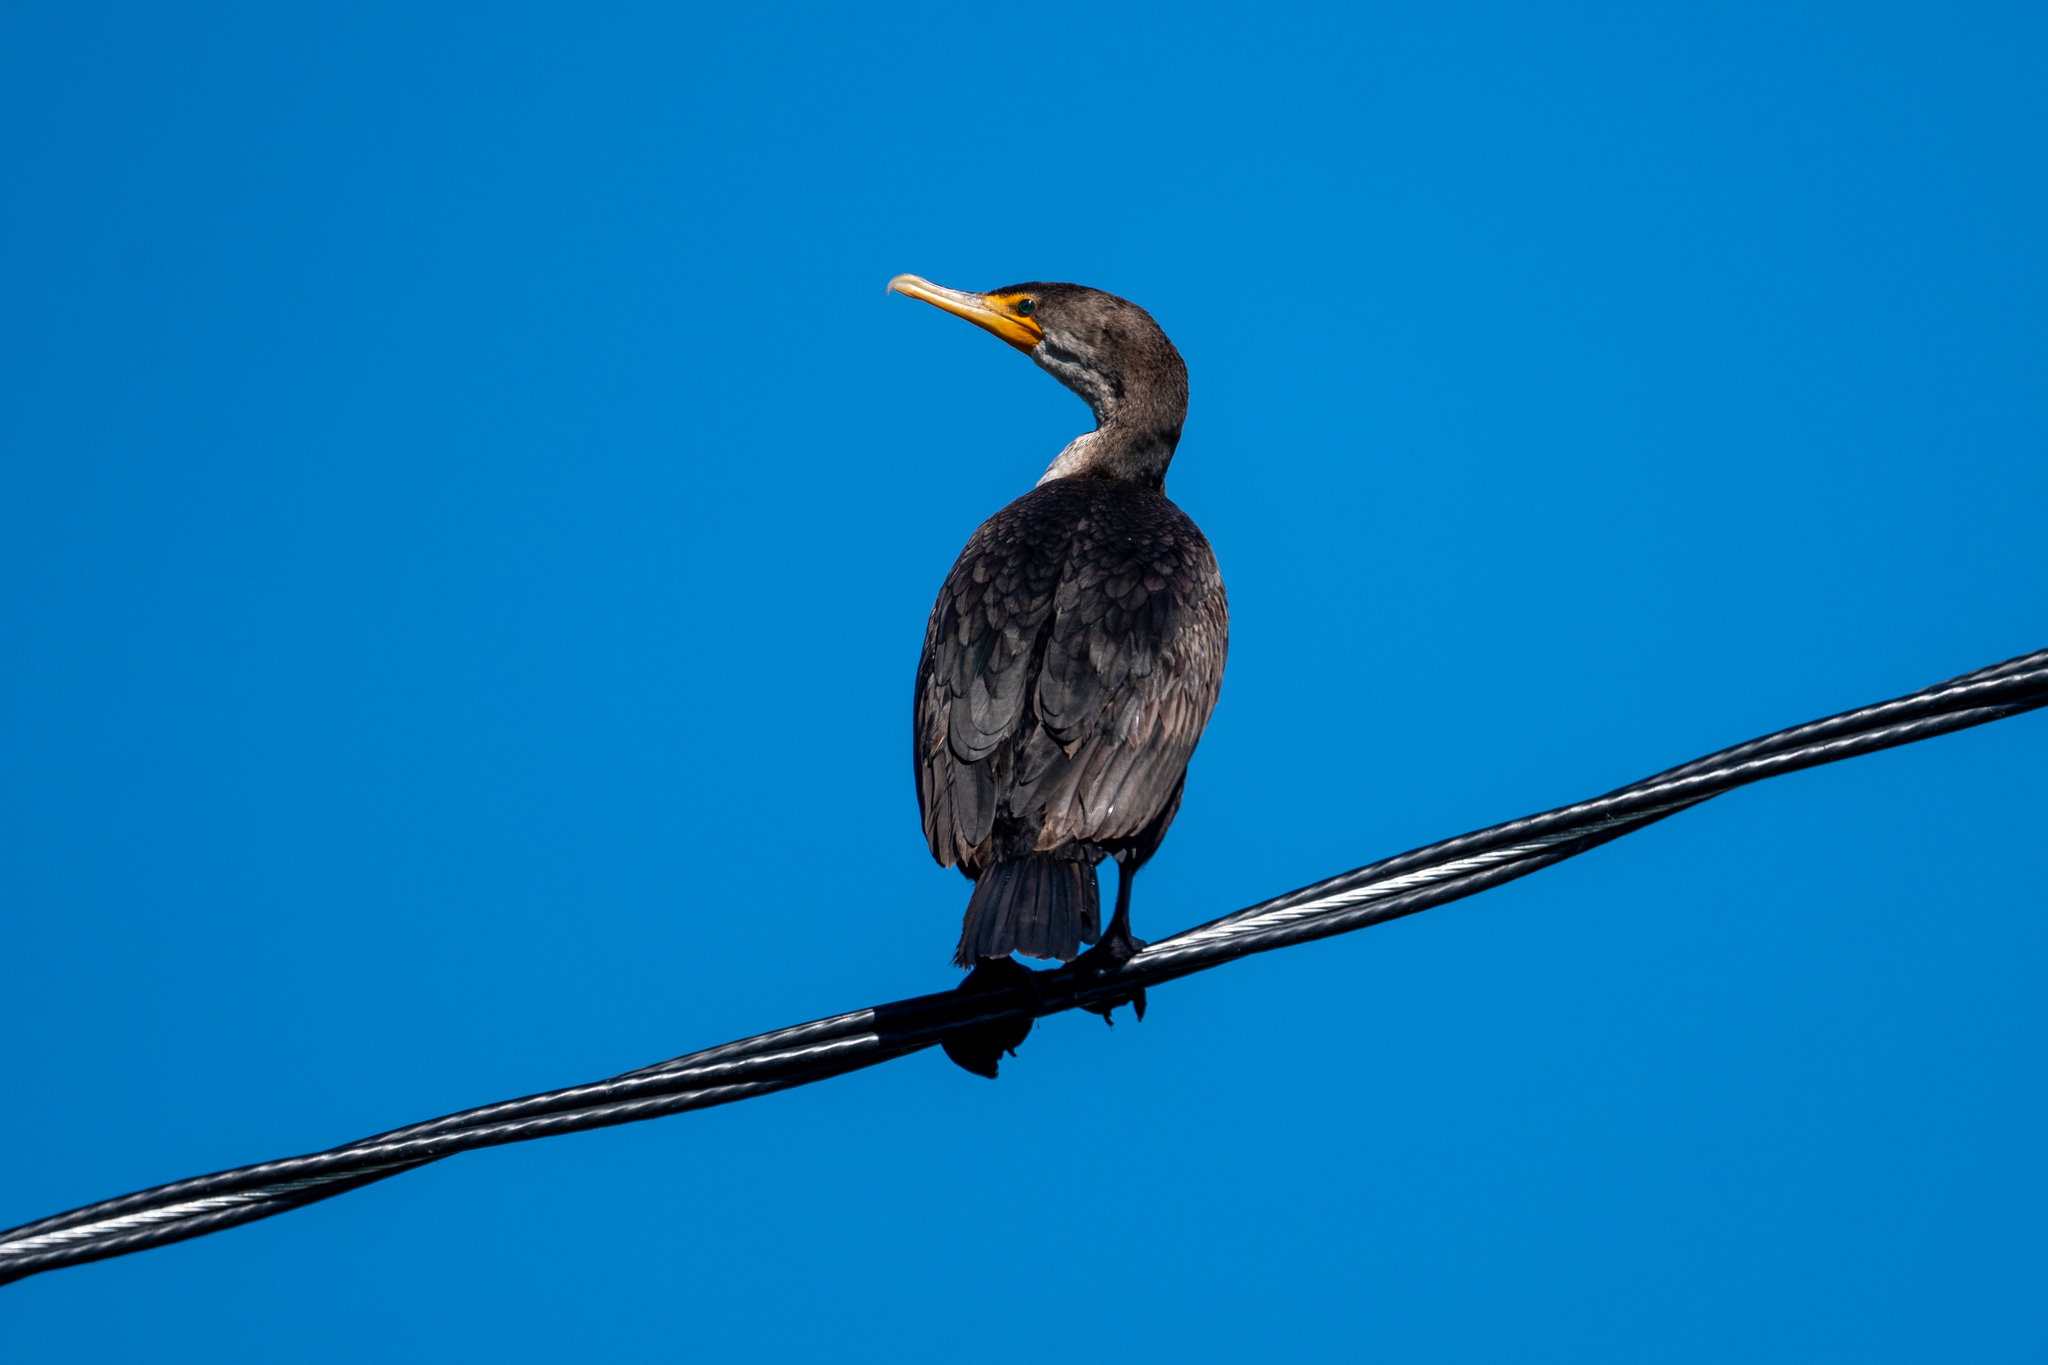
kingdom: Animalia
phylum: Chordata
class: Aves
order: Suliformes
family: Phalacrocoracidae
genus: Phalacrocorax
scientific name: Phalacrocorax auritus
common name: Double-crested cormorant
